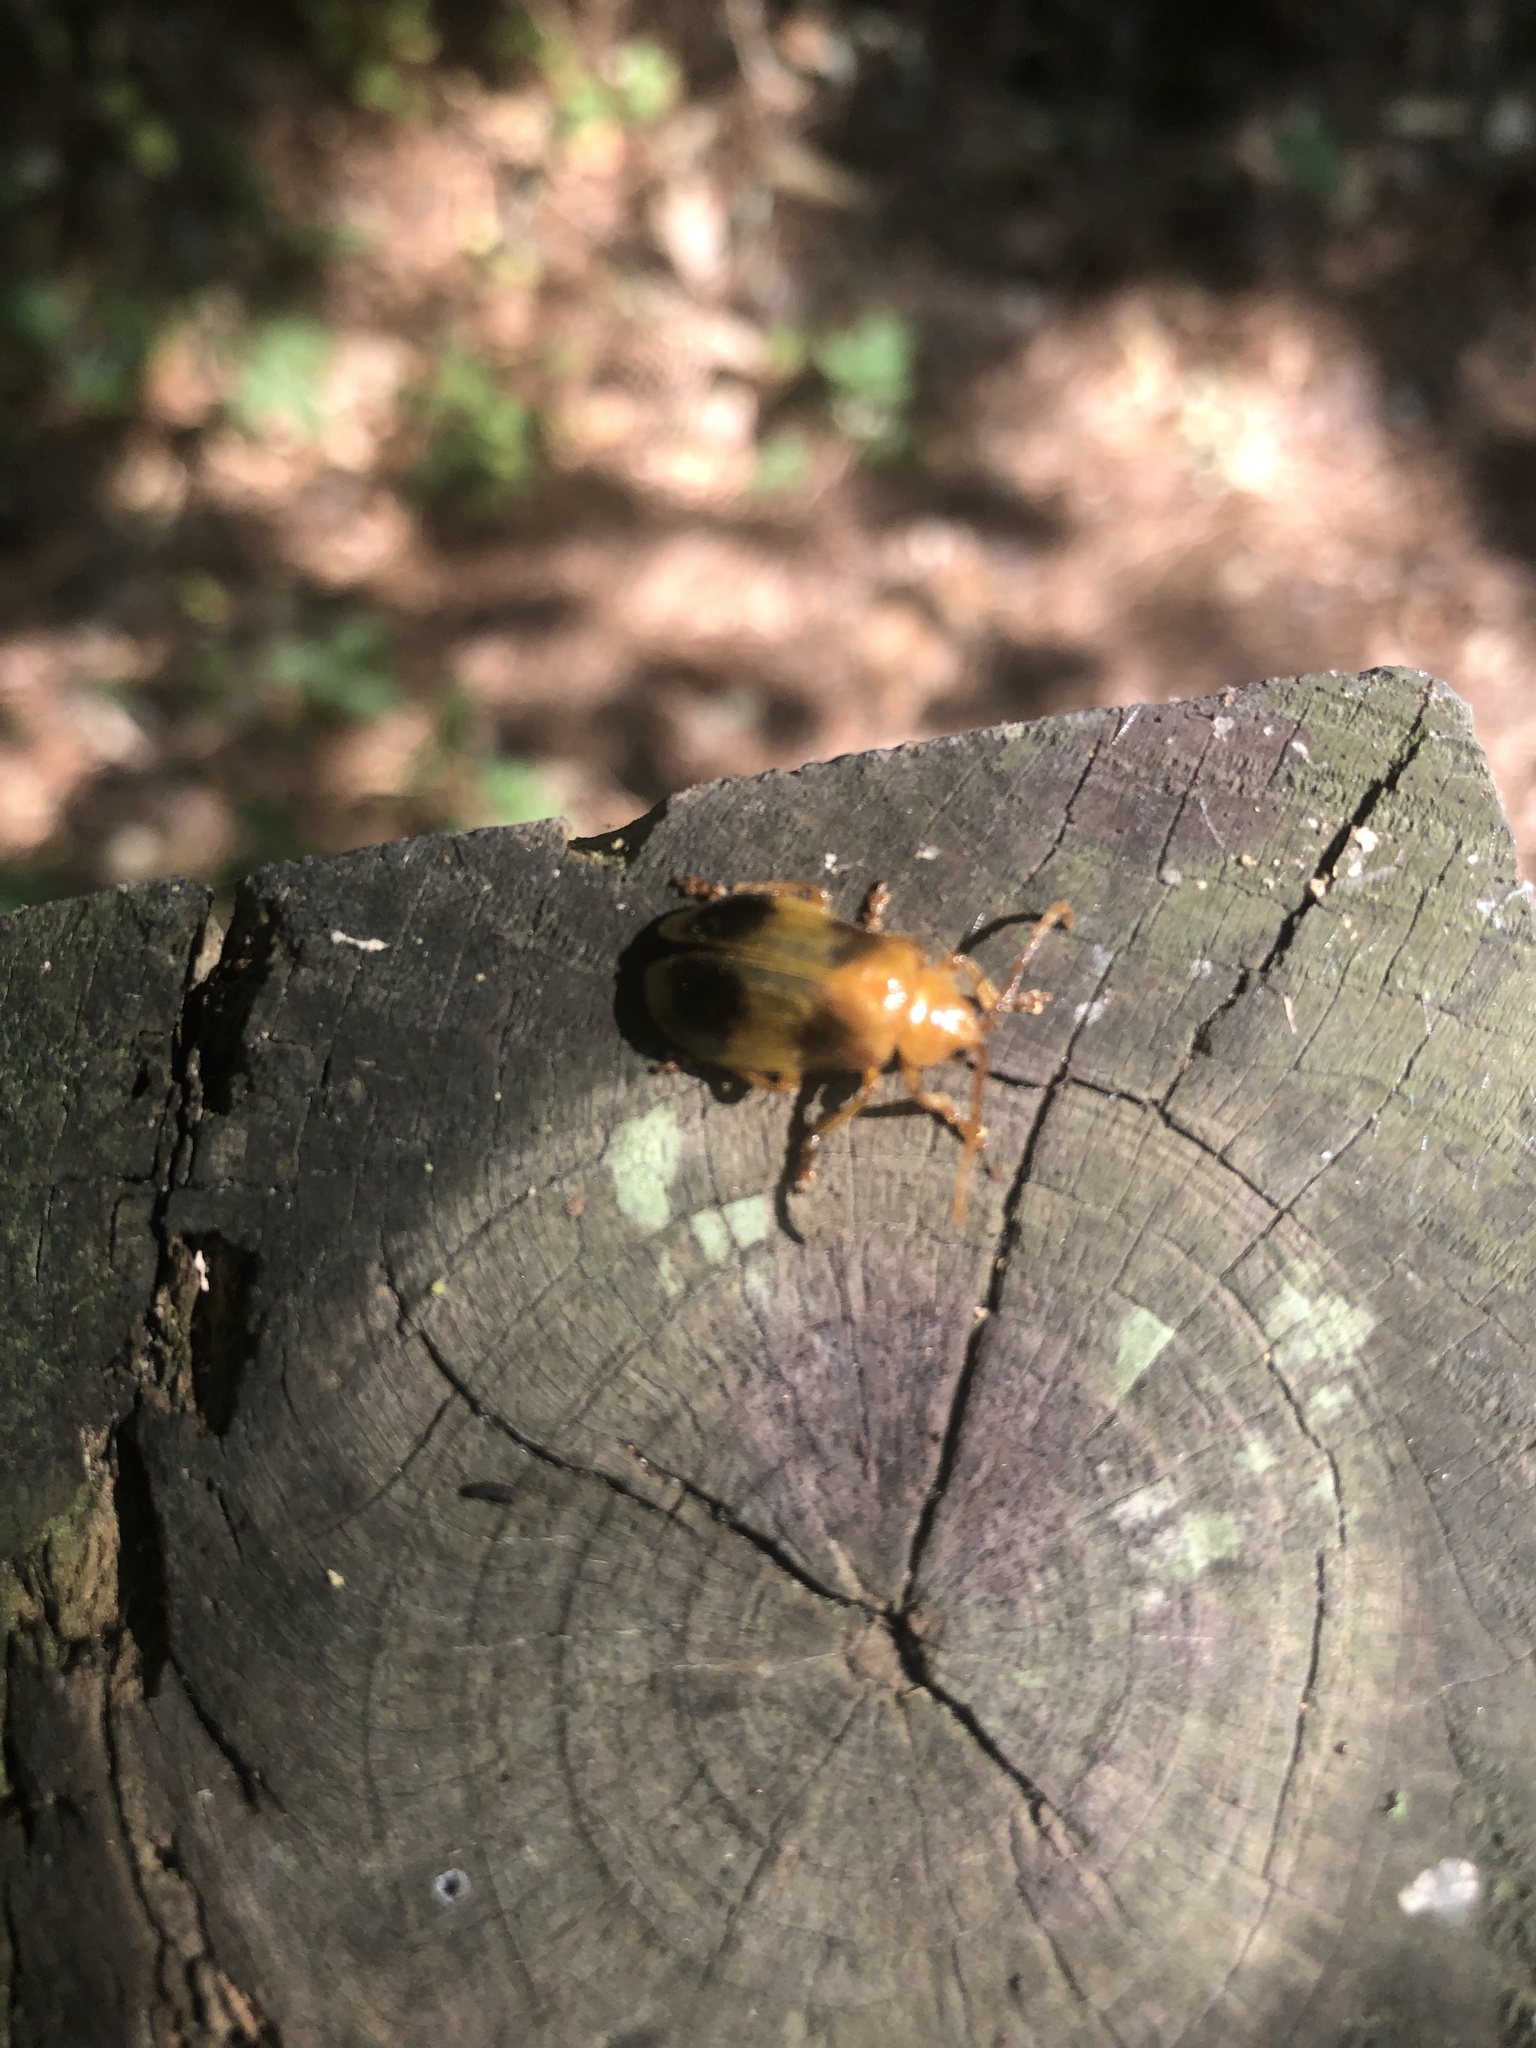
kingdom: Animalia
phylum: Arthropoda
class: Insecta
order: Coleoptera
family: Chrysomelidae
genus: Monocesta
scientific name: Monocesta coryli
